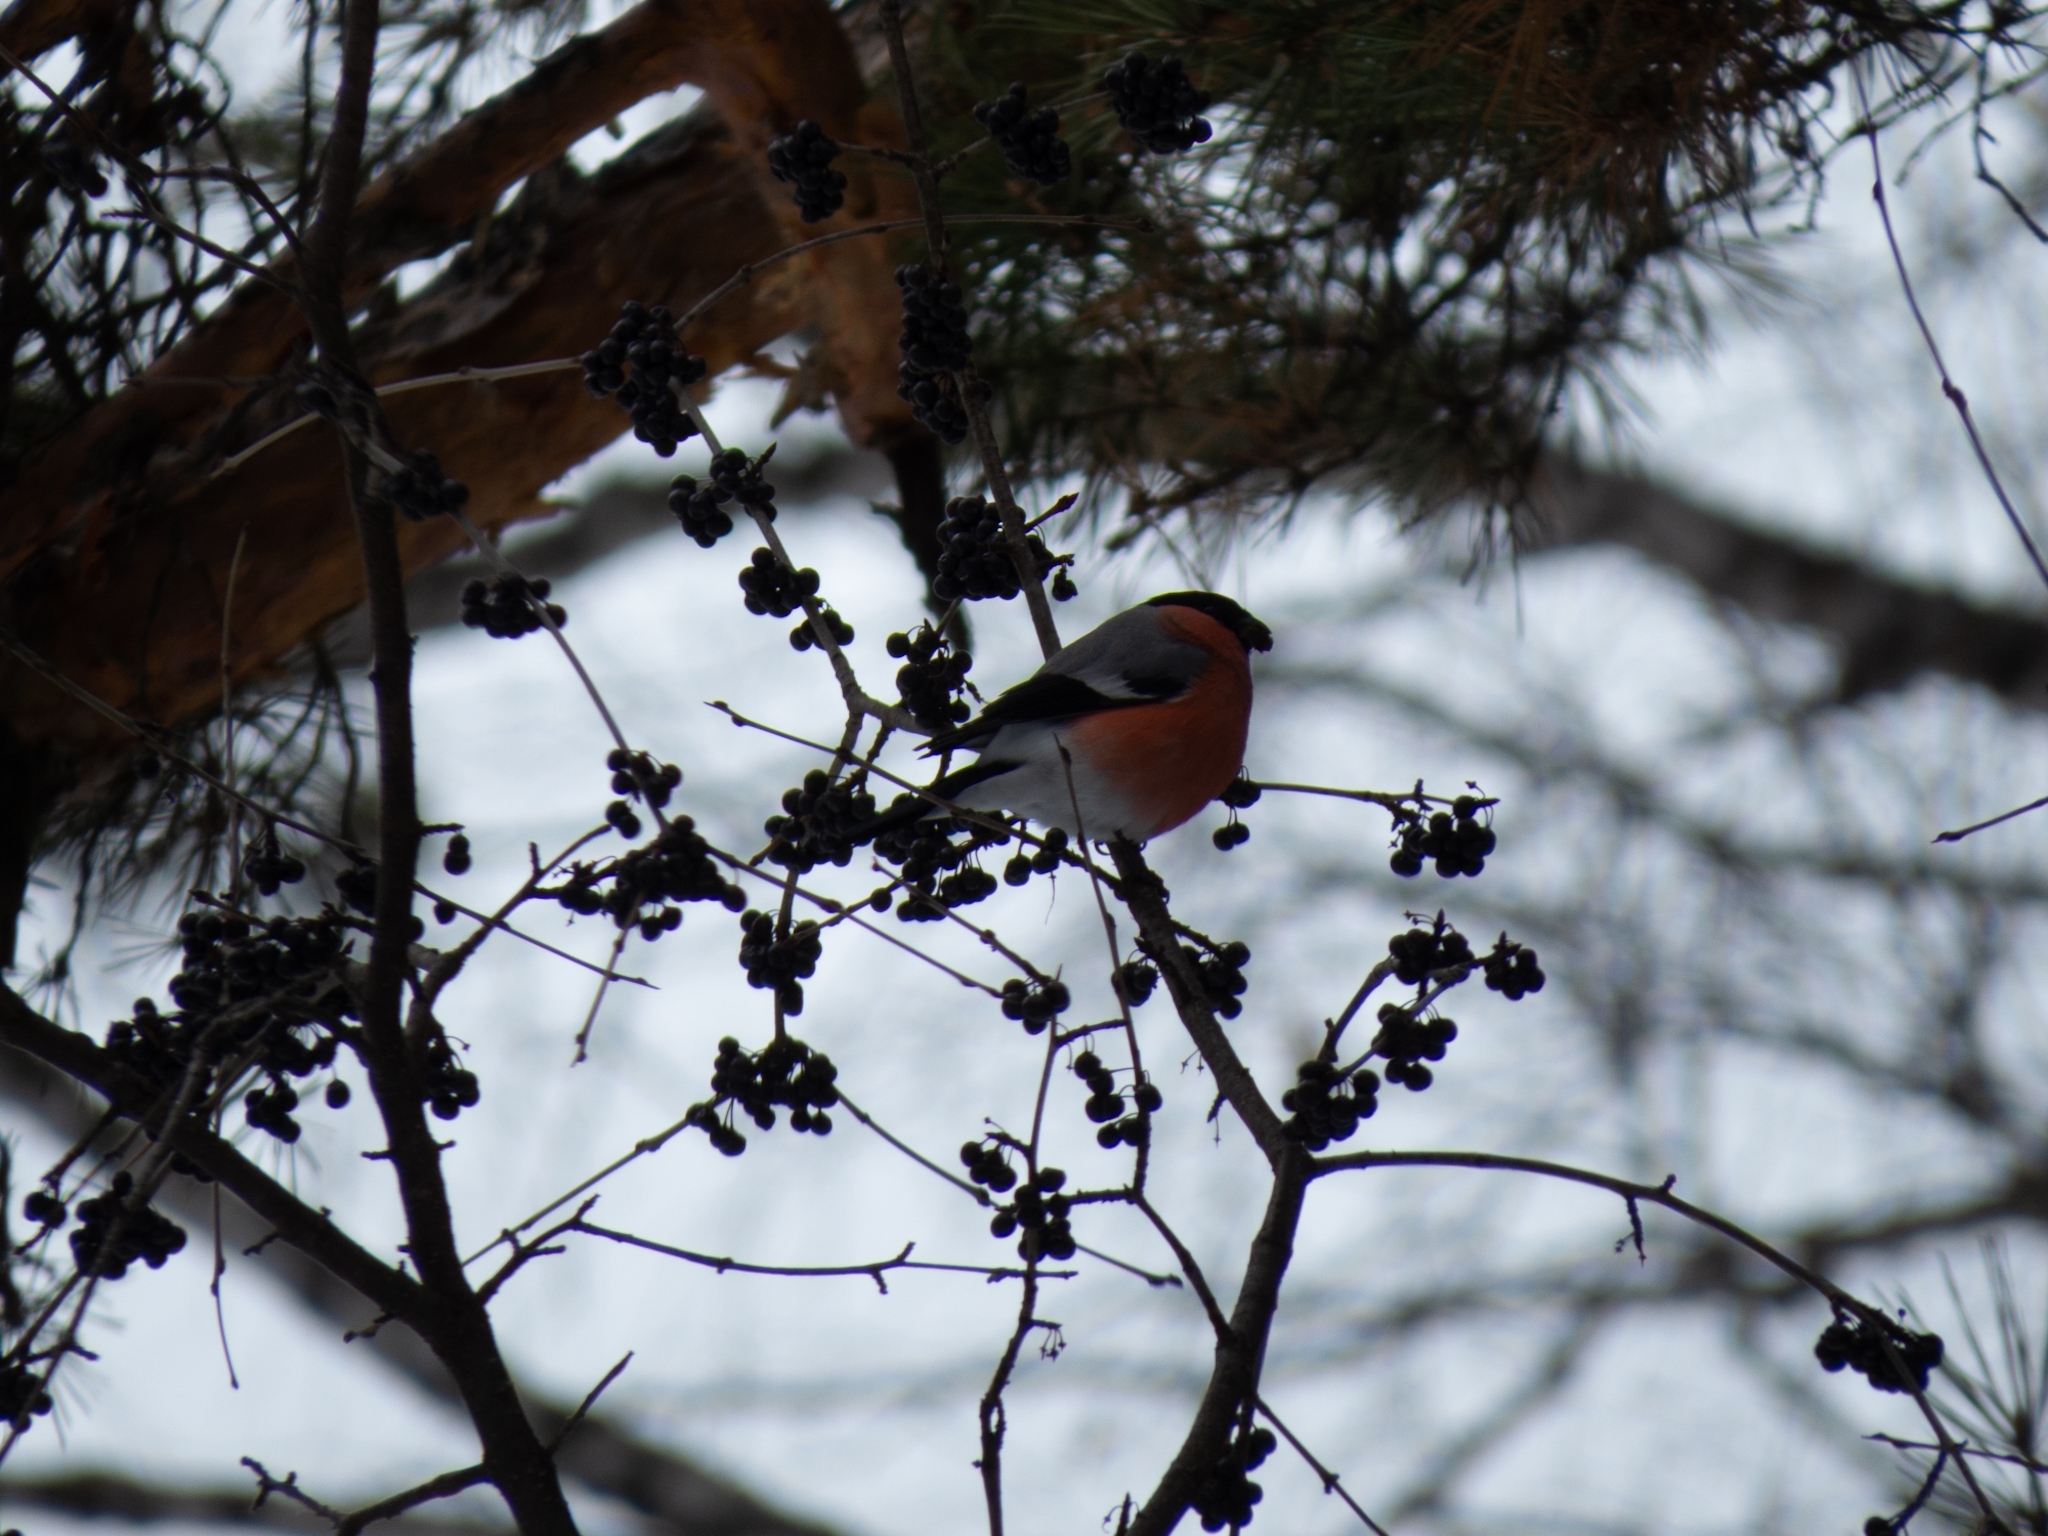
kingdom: Animalia
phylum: Chordata
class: Aves
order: Passeriformes
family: Fringillidae
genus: Pyrrhula
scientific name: Pyrrhula pyrrhula
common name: Eurasian bullfinch
